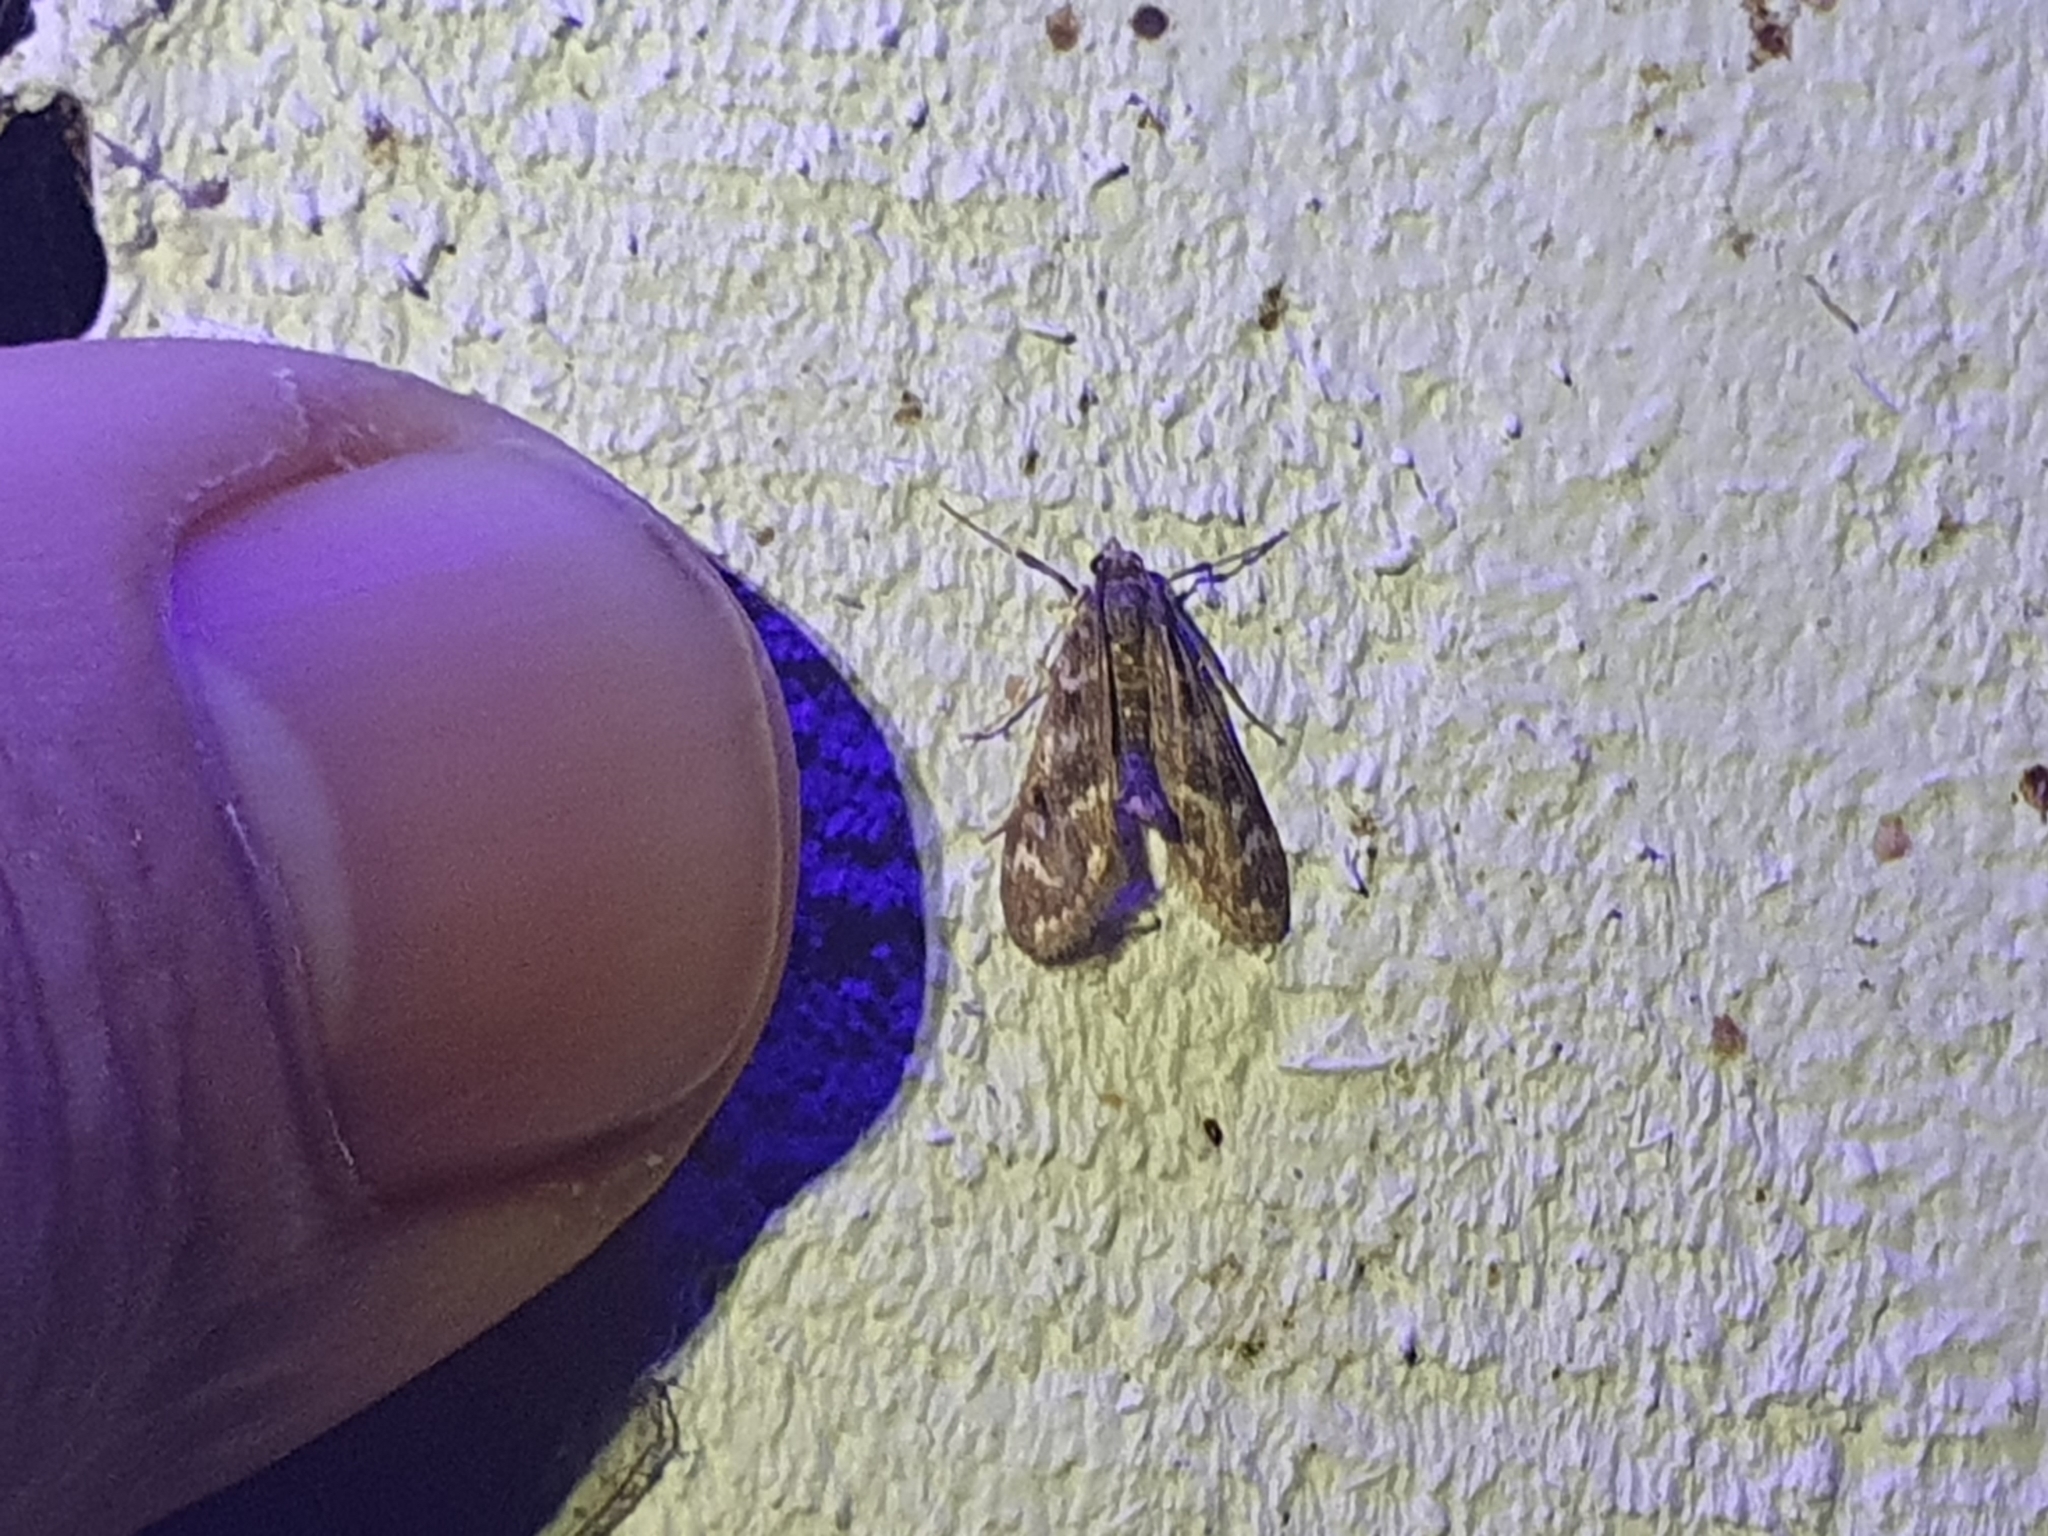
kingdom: Animalia
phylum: Arthropoda
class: Insecta
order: Lepidoptera
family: Crambidae
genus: Hygraula
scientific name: Hygraula nitens
